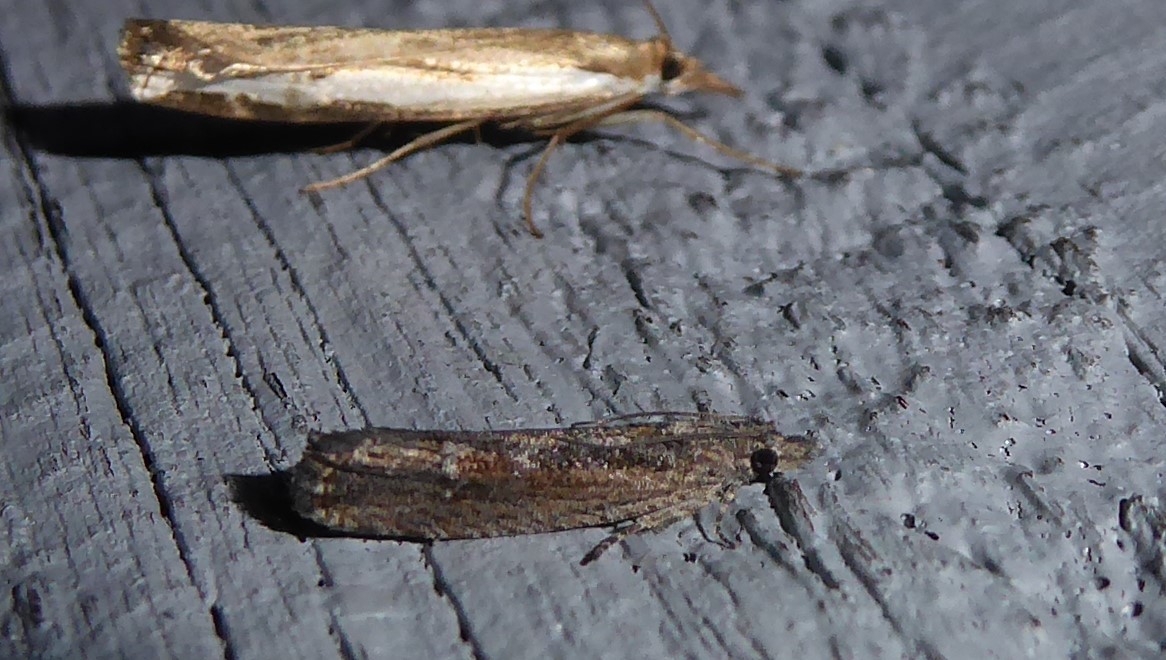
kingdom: Animalia
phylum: Arthropoda
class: Insecta
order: Lepidoptera
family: Tortricidae
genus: Strepsicrates
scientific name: Strepsicrates macropetana
